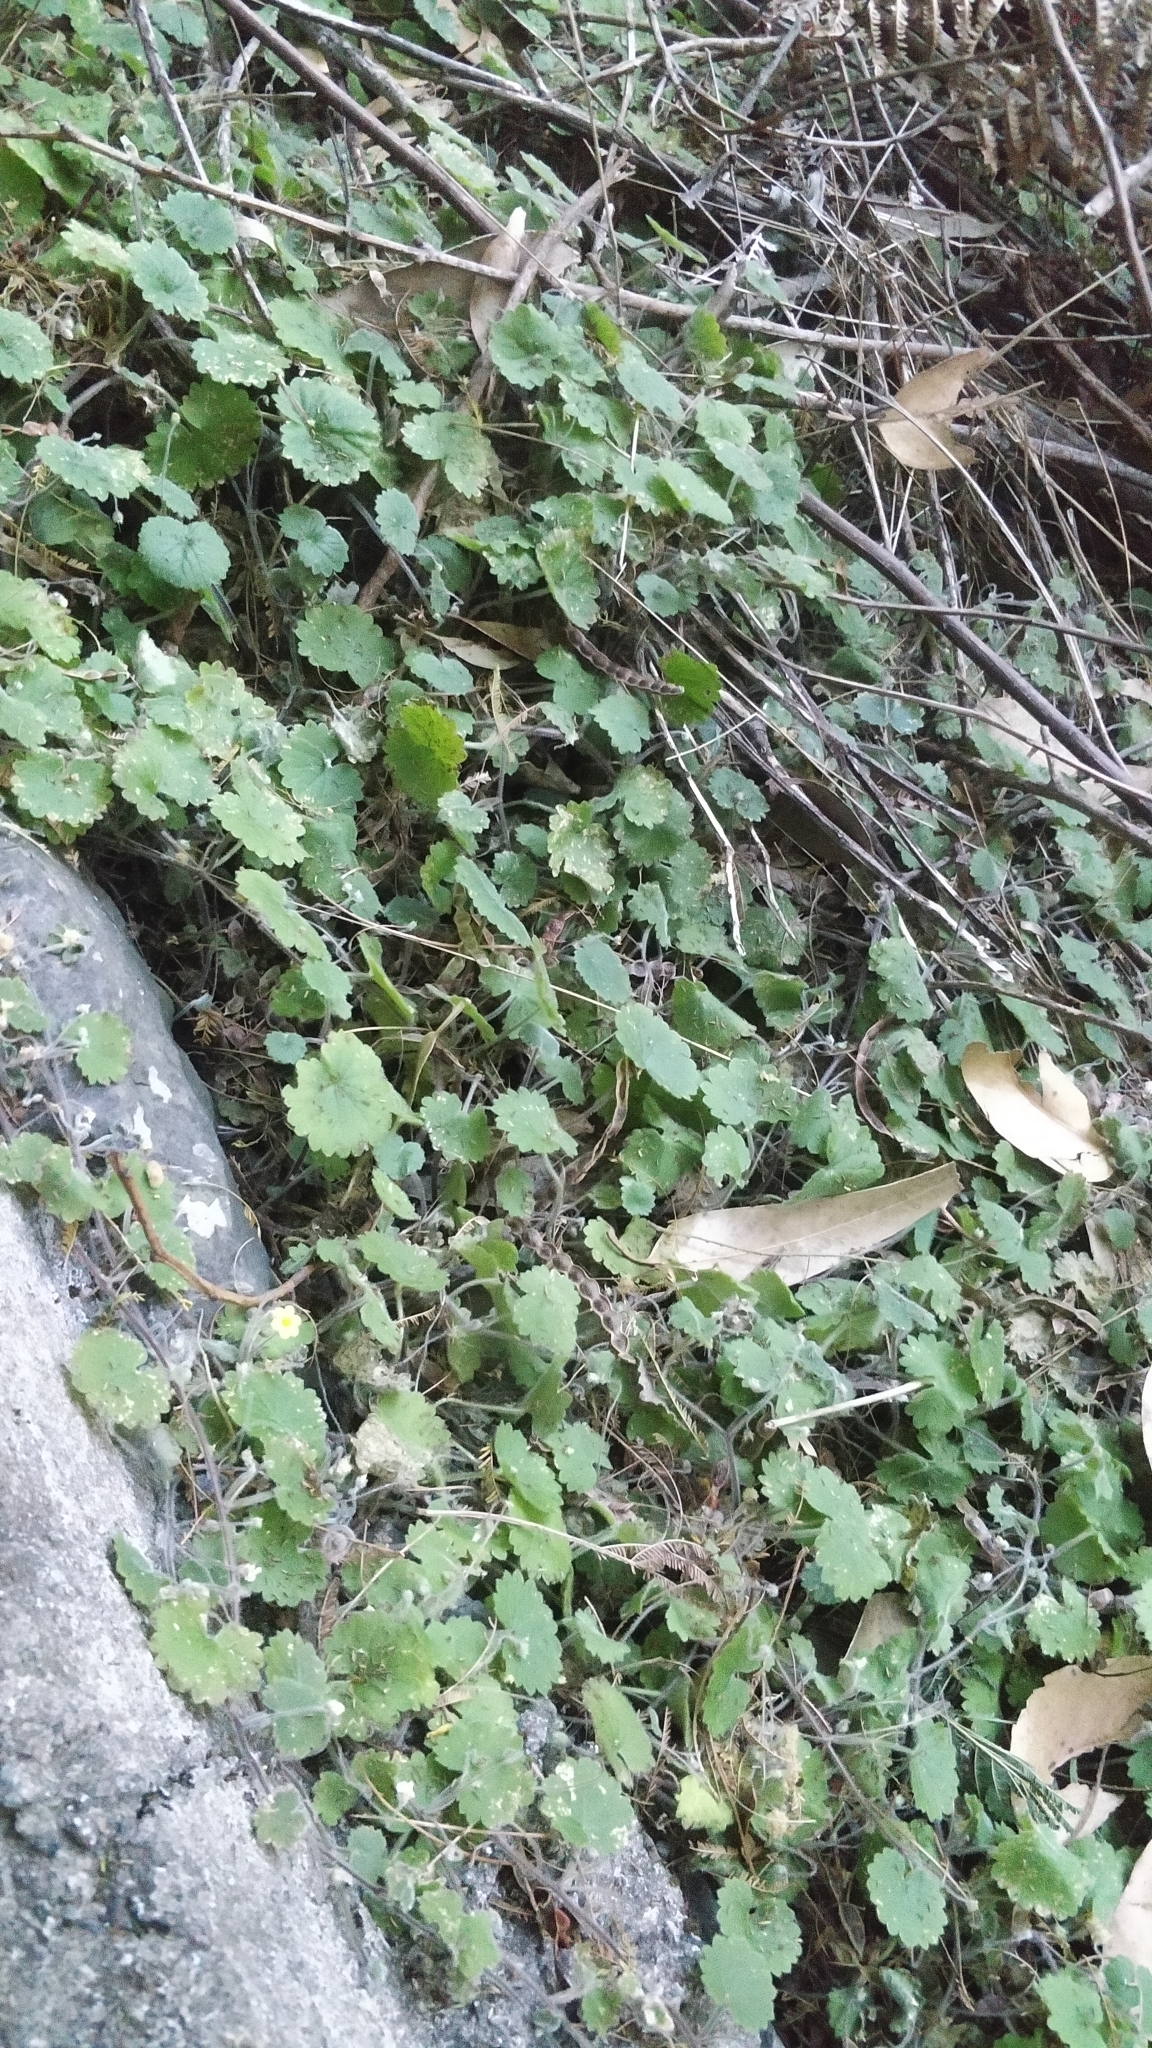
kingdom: Plantae
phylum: Tracheophyta
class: Magnoliopsida
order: Lamiales
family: Plantaginaceae
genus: Sibthorpia
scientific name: Sibthorpia peregrina
